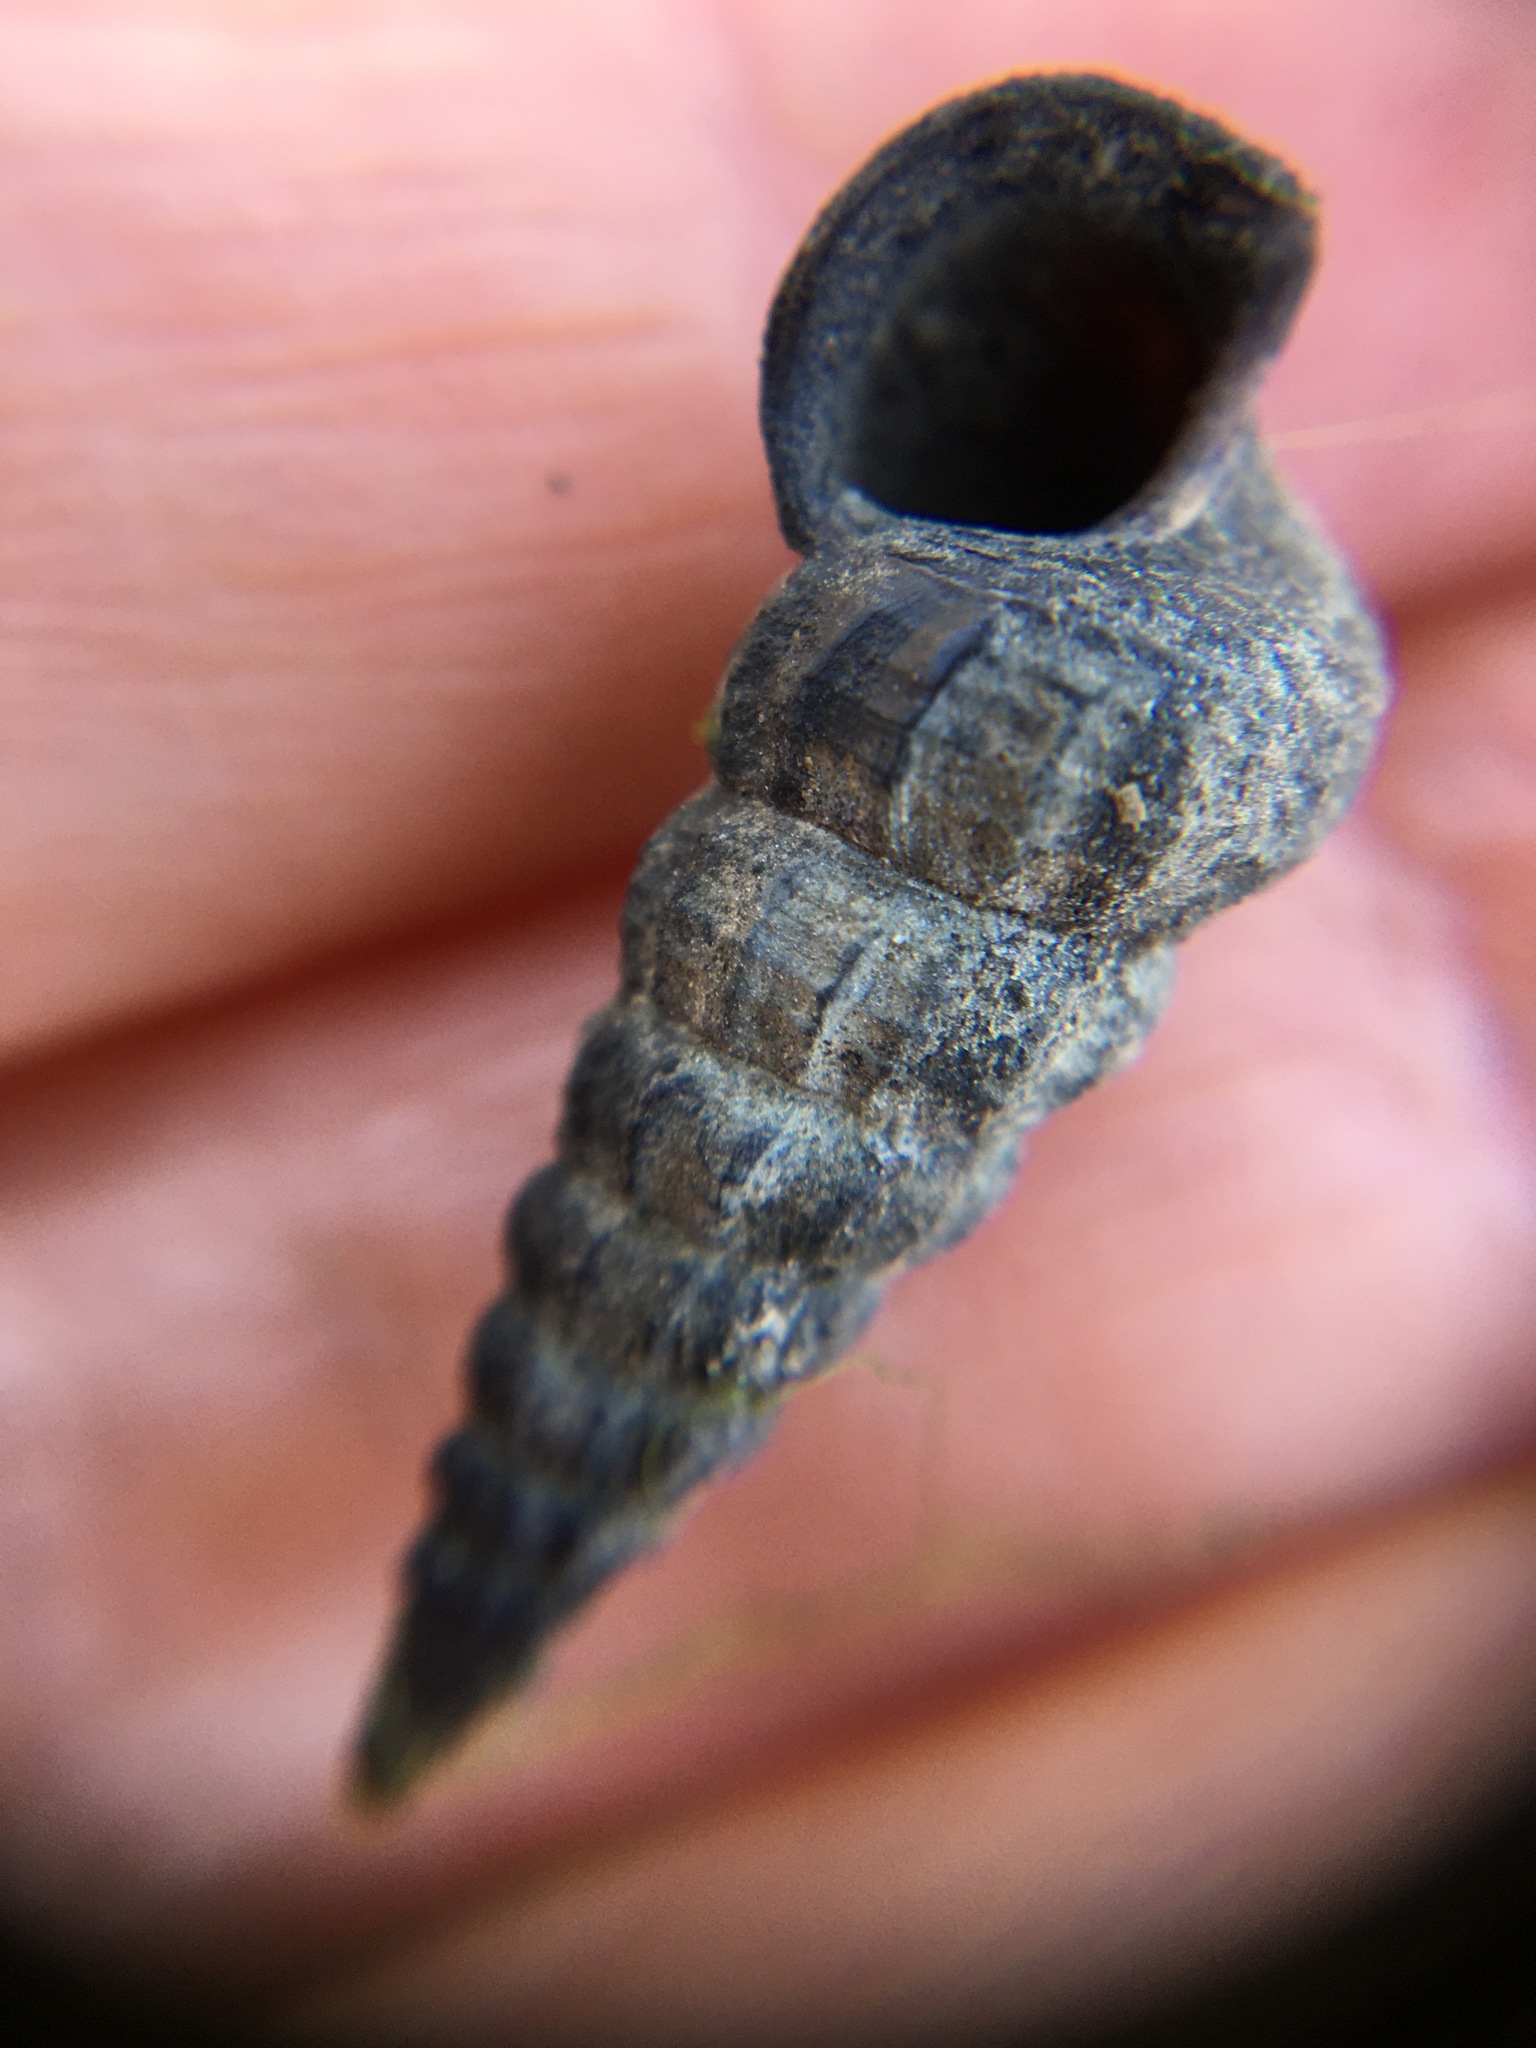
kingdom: Animalia
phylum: Mollusca
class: Gastropoda
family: Potamididae
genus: Cerithideopsis
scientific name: Cerithideopsis californica
